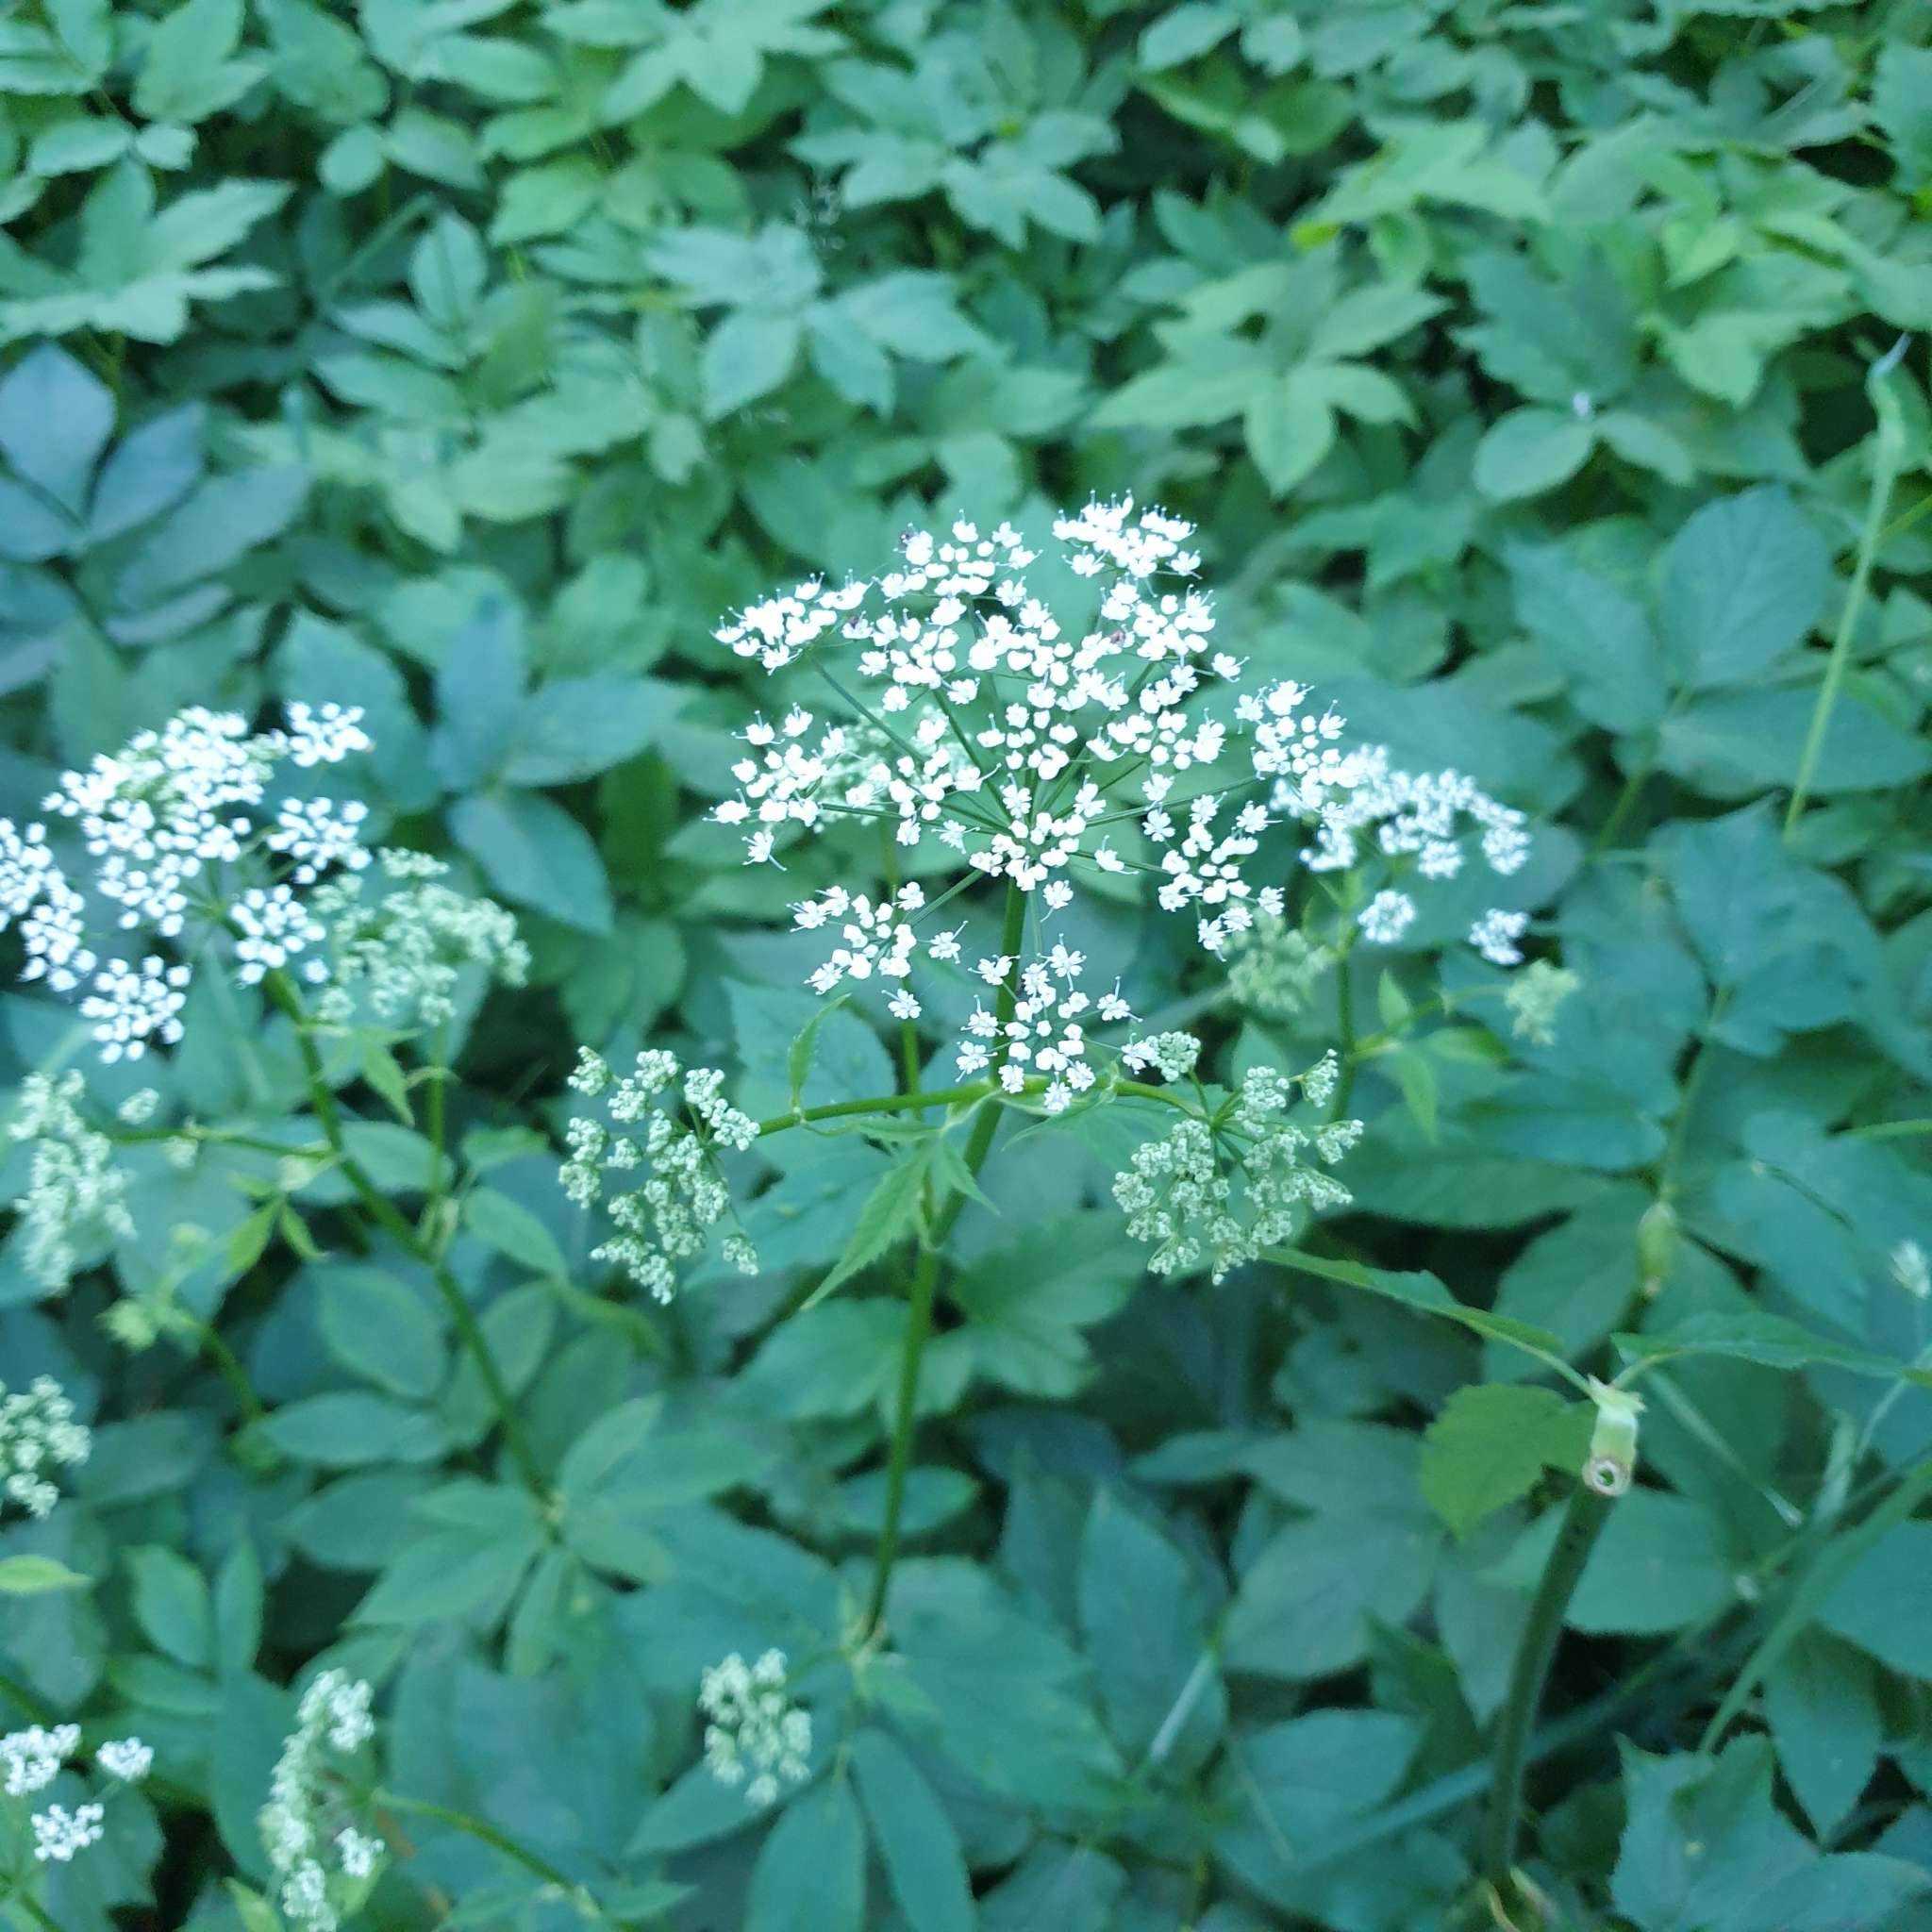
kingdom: Plantae
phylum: Tracheophyta
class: Magnoliopsida
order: Apiales
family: Apiaceae
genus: Aegopodium
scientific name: Aegopodium podagraria
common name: Ground-elder
